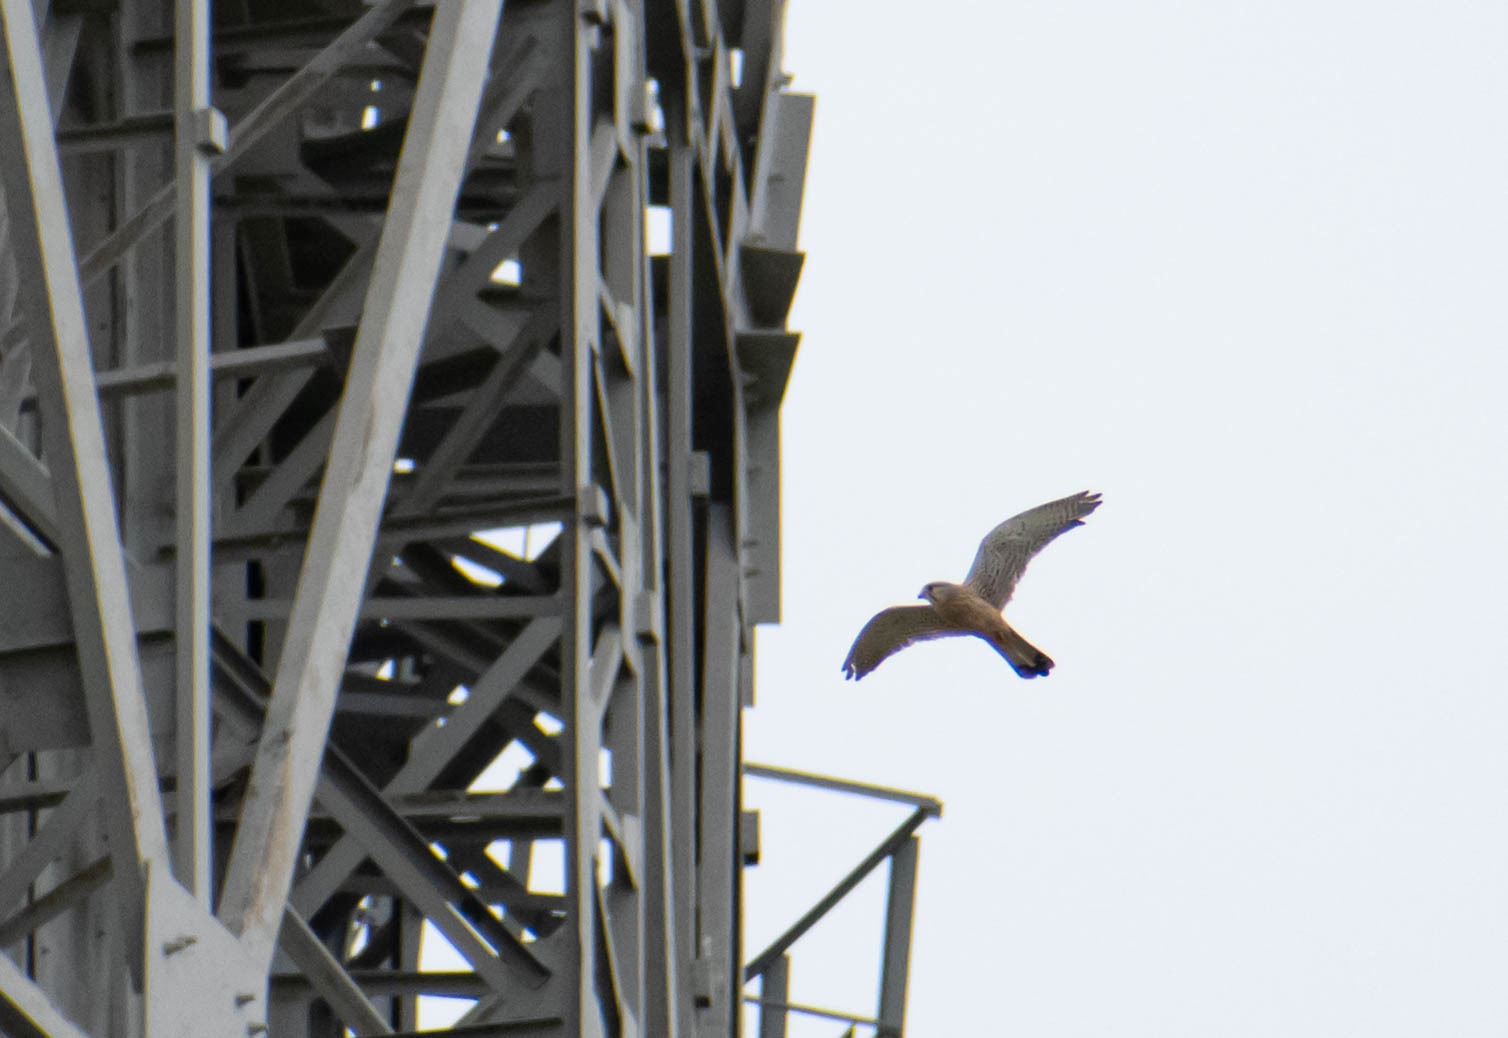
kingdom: Animalia
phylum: Chordata
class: Aves
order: Falconiformes
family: Falconidae
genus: Falco
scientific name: Falco tinnunculus
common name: Common kestrel
